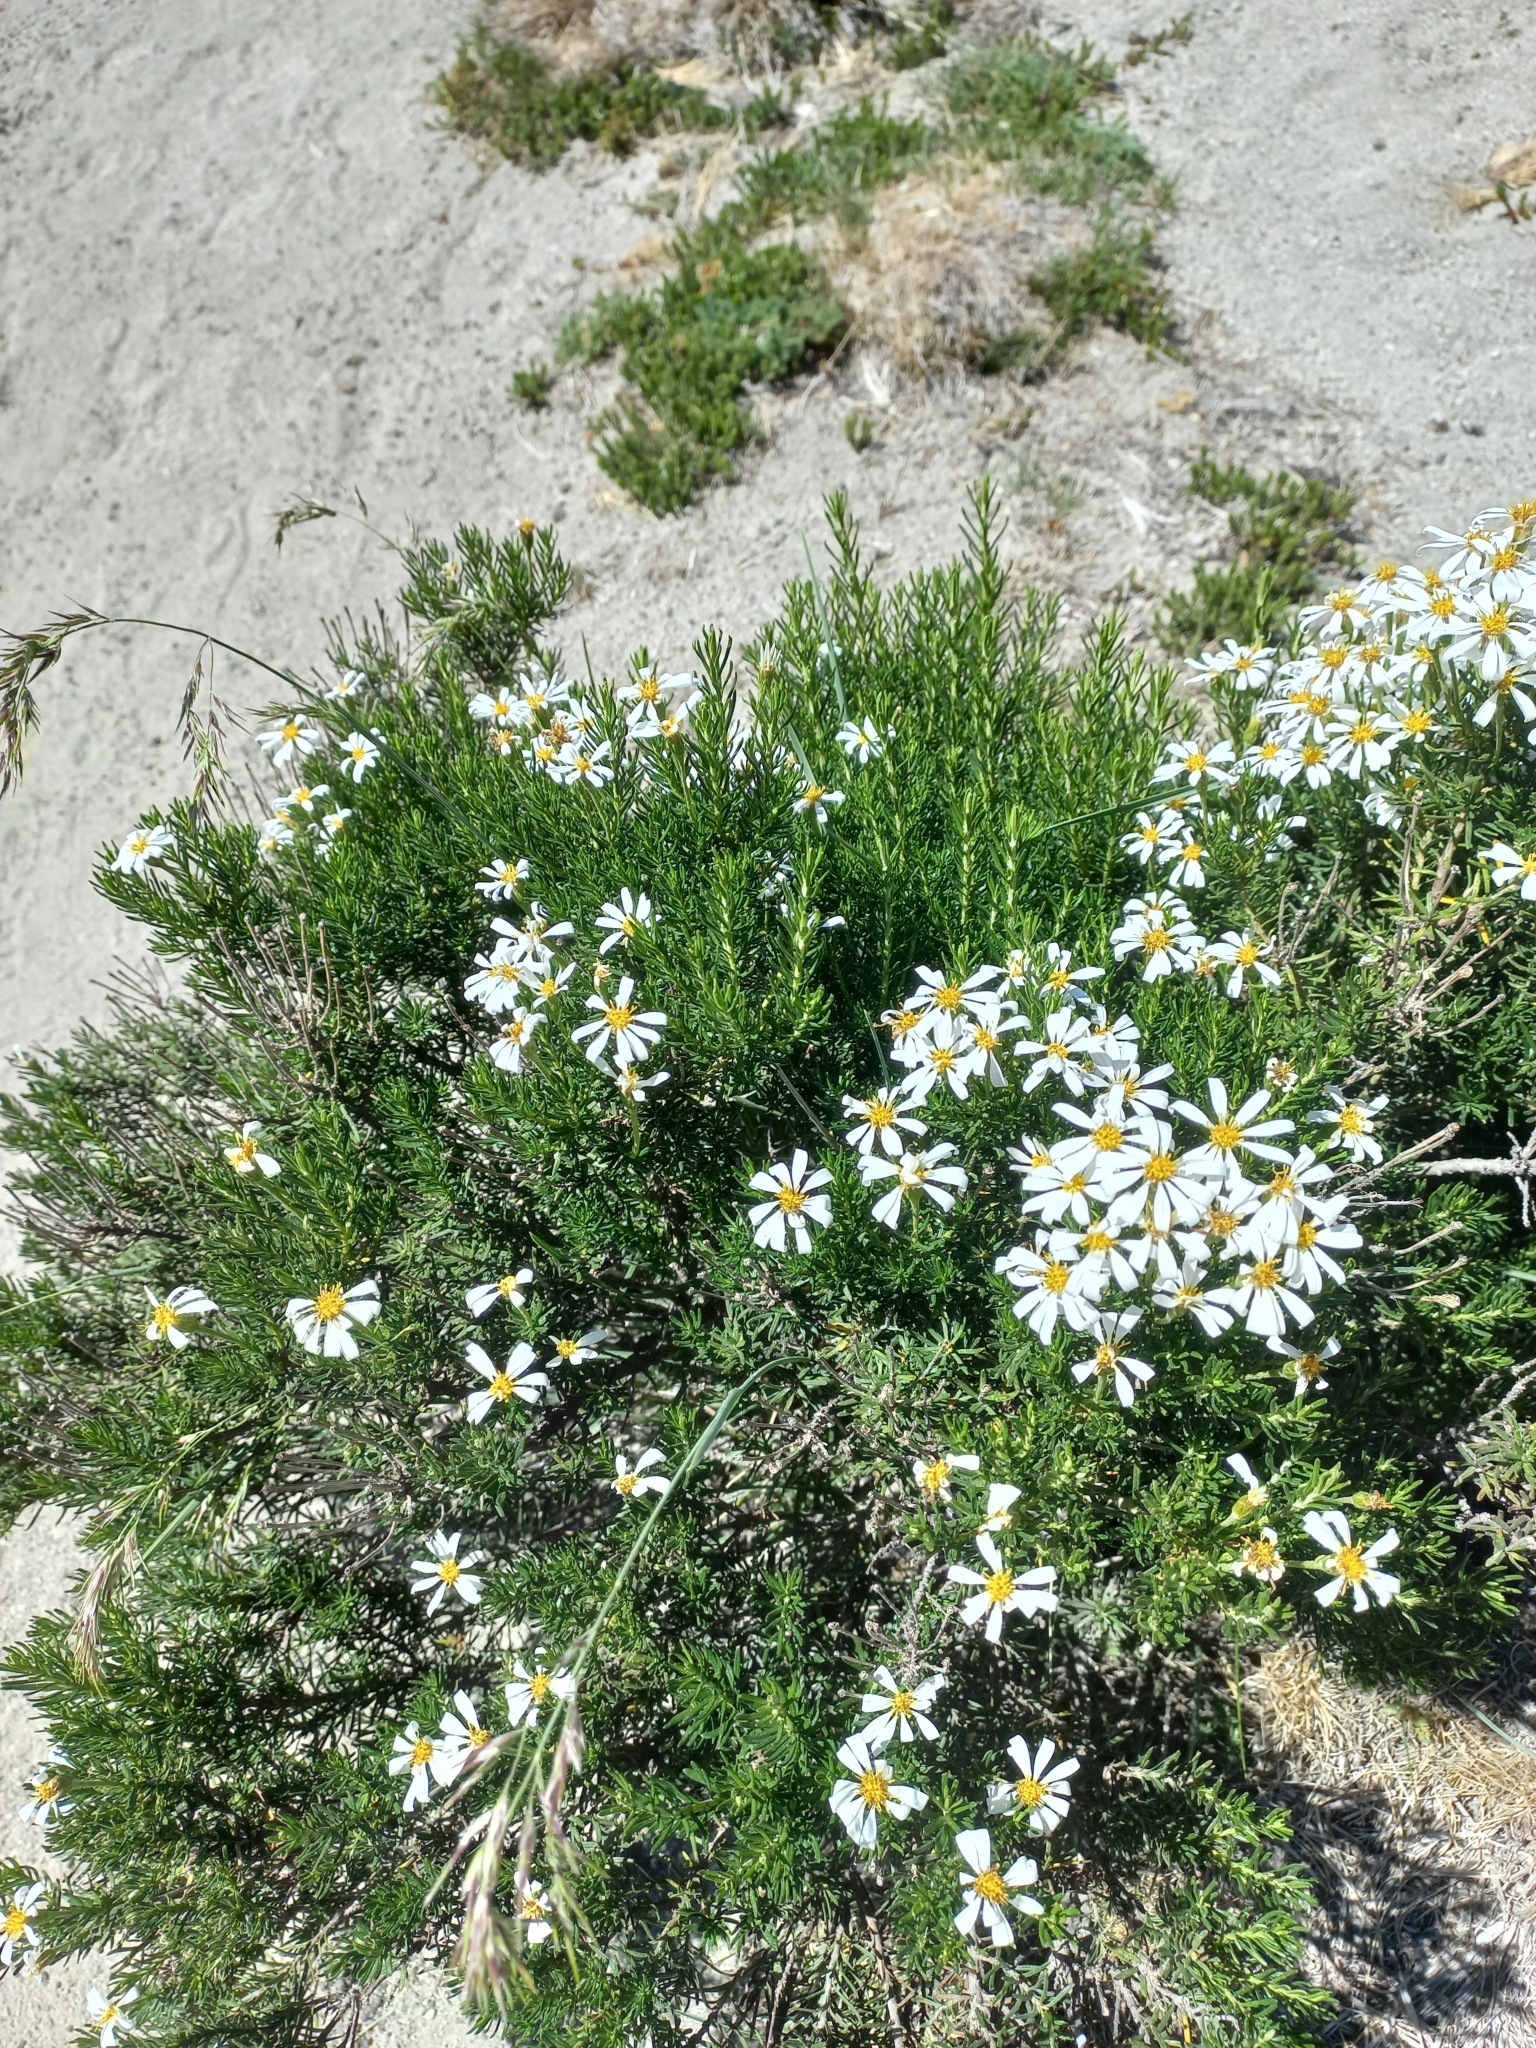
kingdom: Plantae
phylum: Tracheophyta
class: Magnoliopsida
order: Asterales
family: Asteraceae
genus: Chiliotrichum
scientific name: Chiliotrichum diffusum
